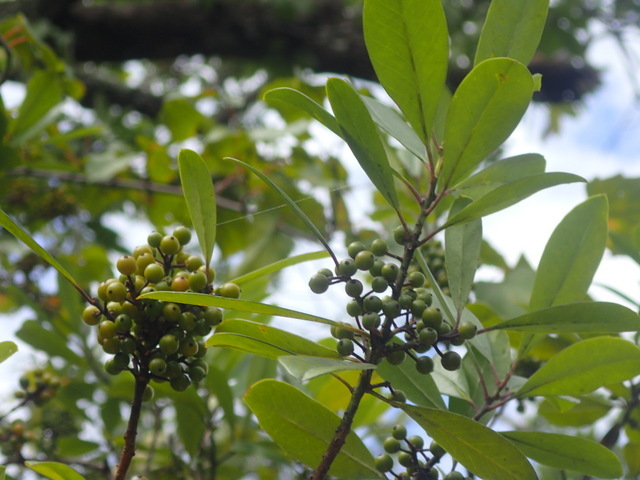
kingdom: Plantae
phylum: Tracheophyta
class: Magnoliopsida
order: Aquifoliales
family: Aquifoliaceae
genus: Ilex
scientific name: Ilex cassine
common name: Dahoon
